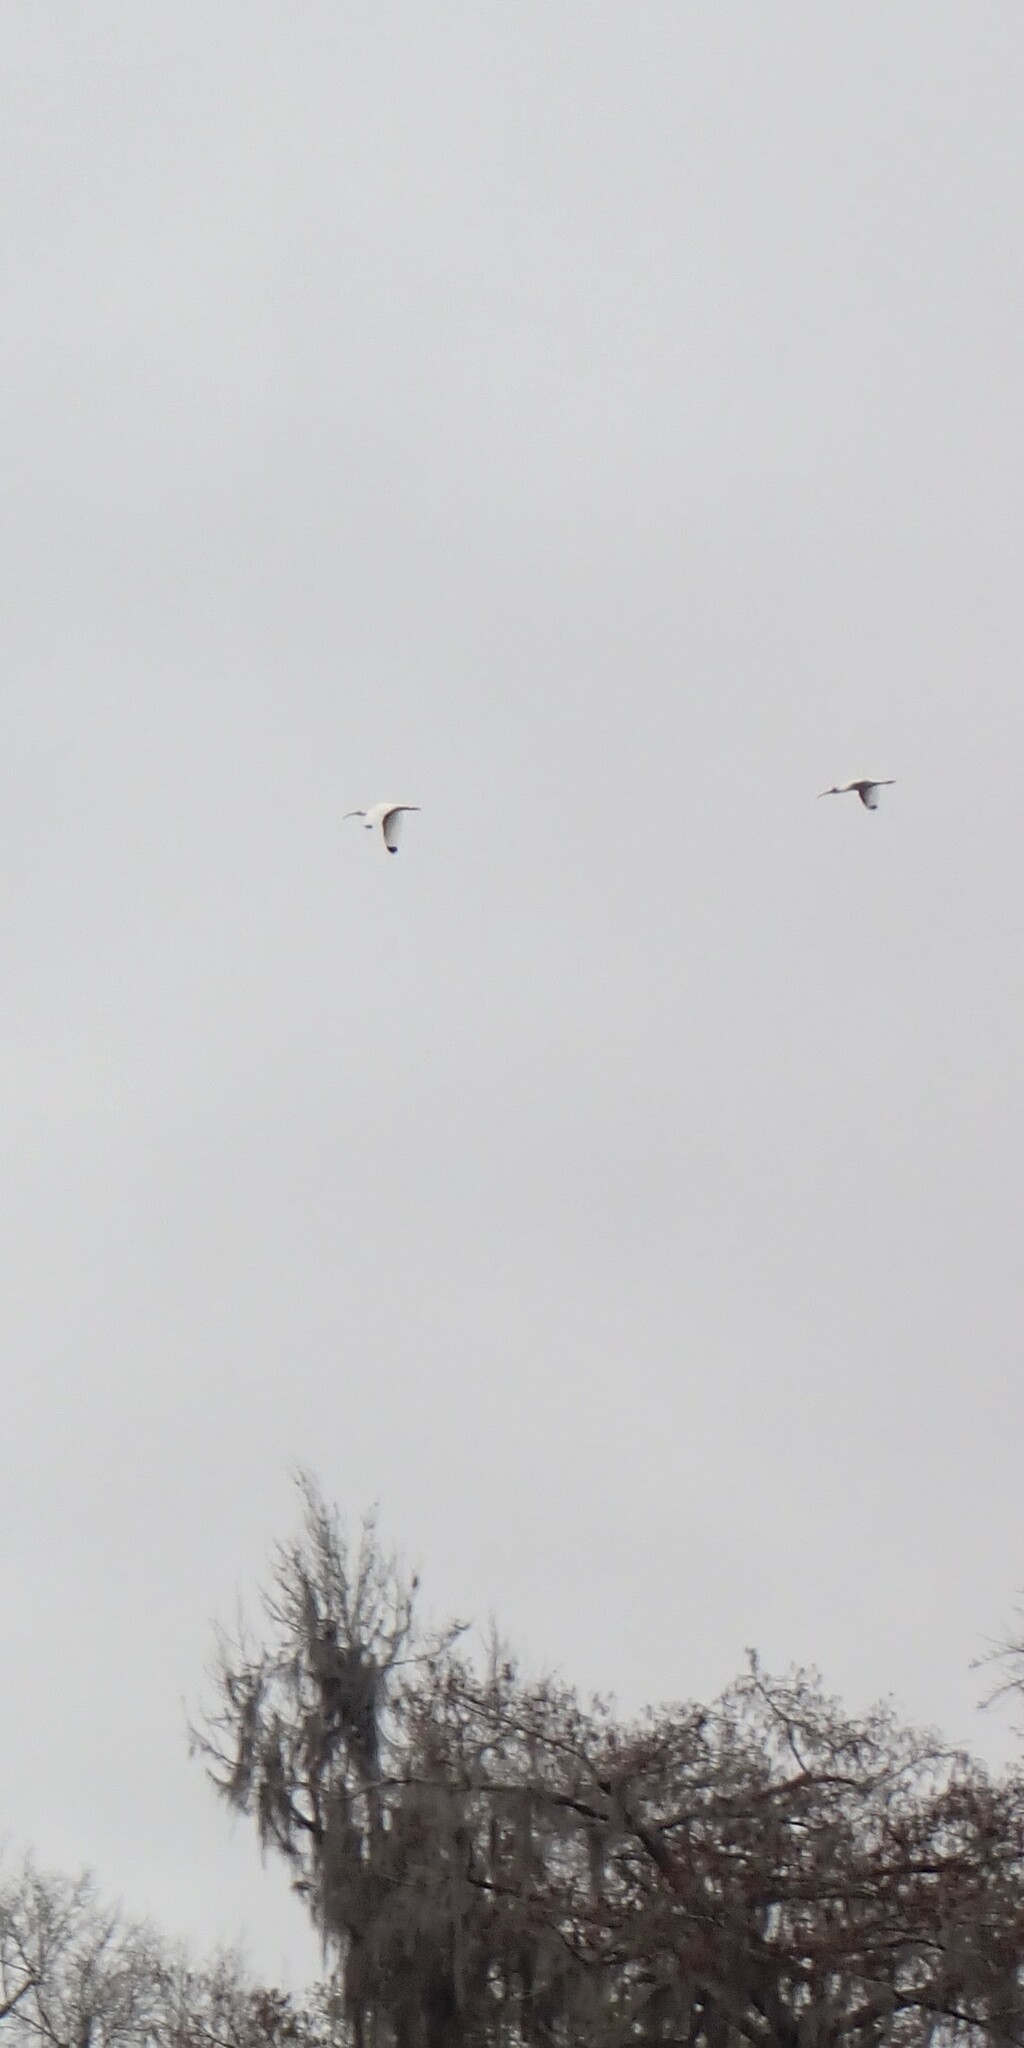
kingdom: Animalia
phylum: Chordata
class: Aves
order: Pelecaniformes
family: Threskiornithidae
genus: Eudocimus
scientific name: Eudocimus albus
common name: White ibis
